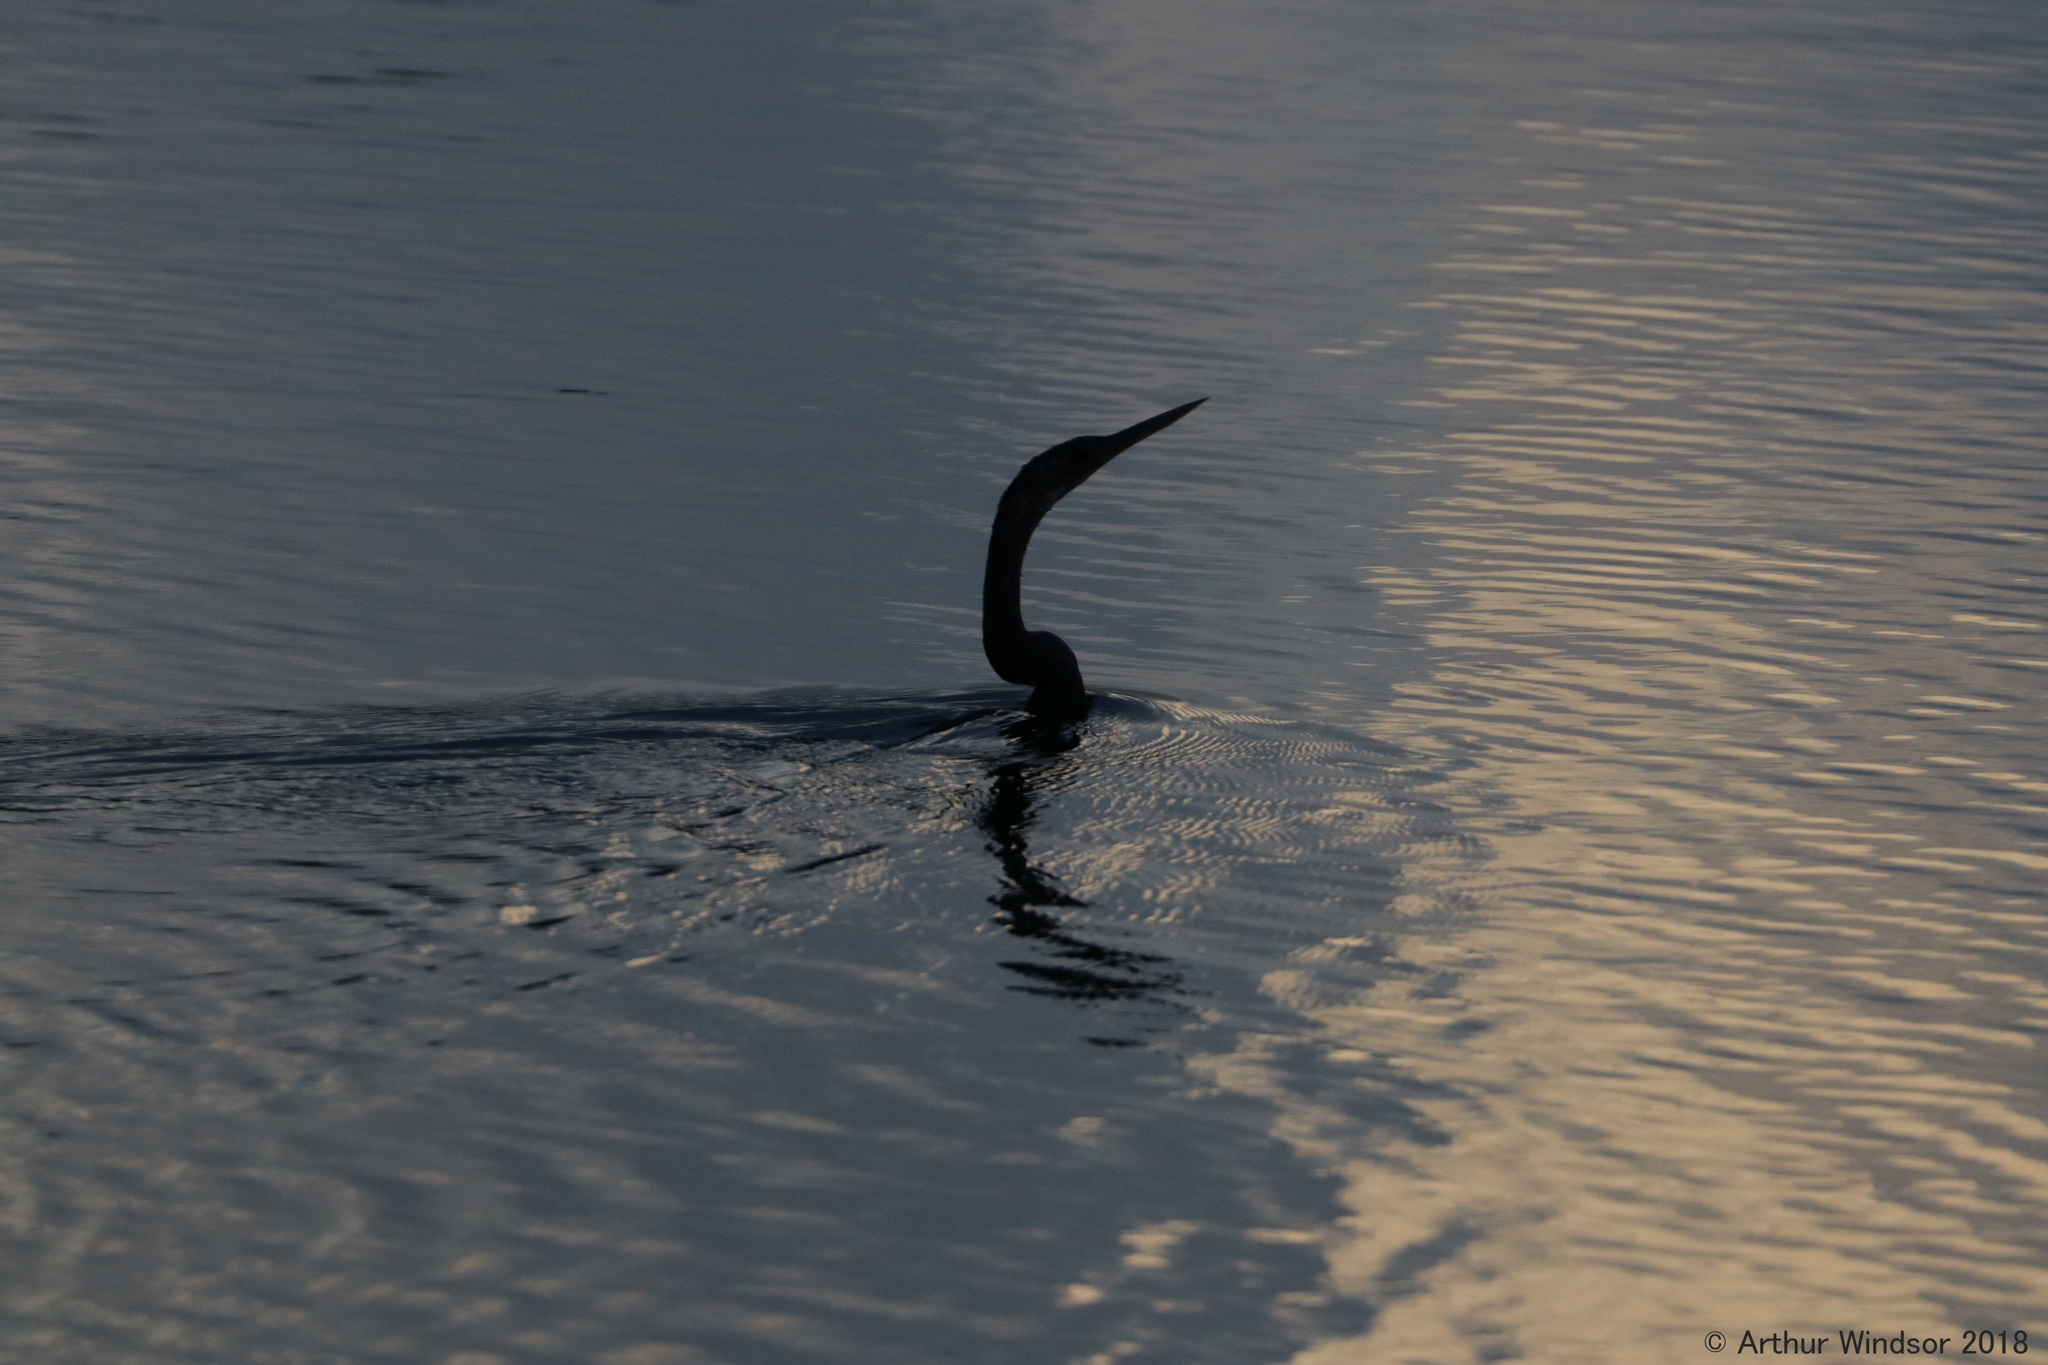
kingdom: Animalia
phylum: Chordata
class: Aves
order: Suliformes
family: Anhingidae
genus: Anhinga
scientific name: Anhinga anhinga
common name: Anhinga
